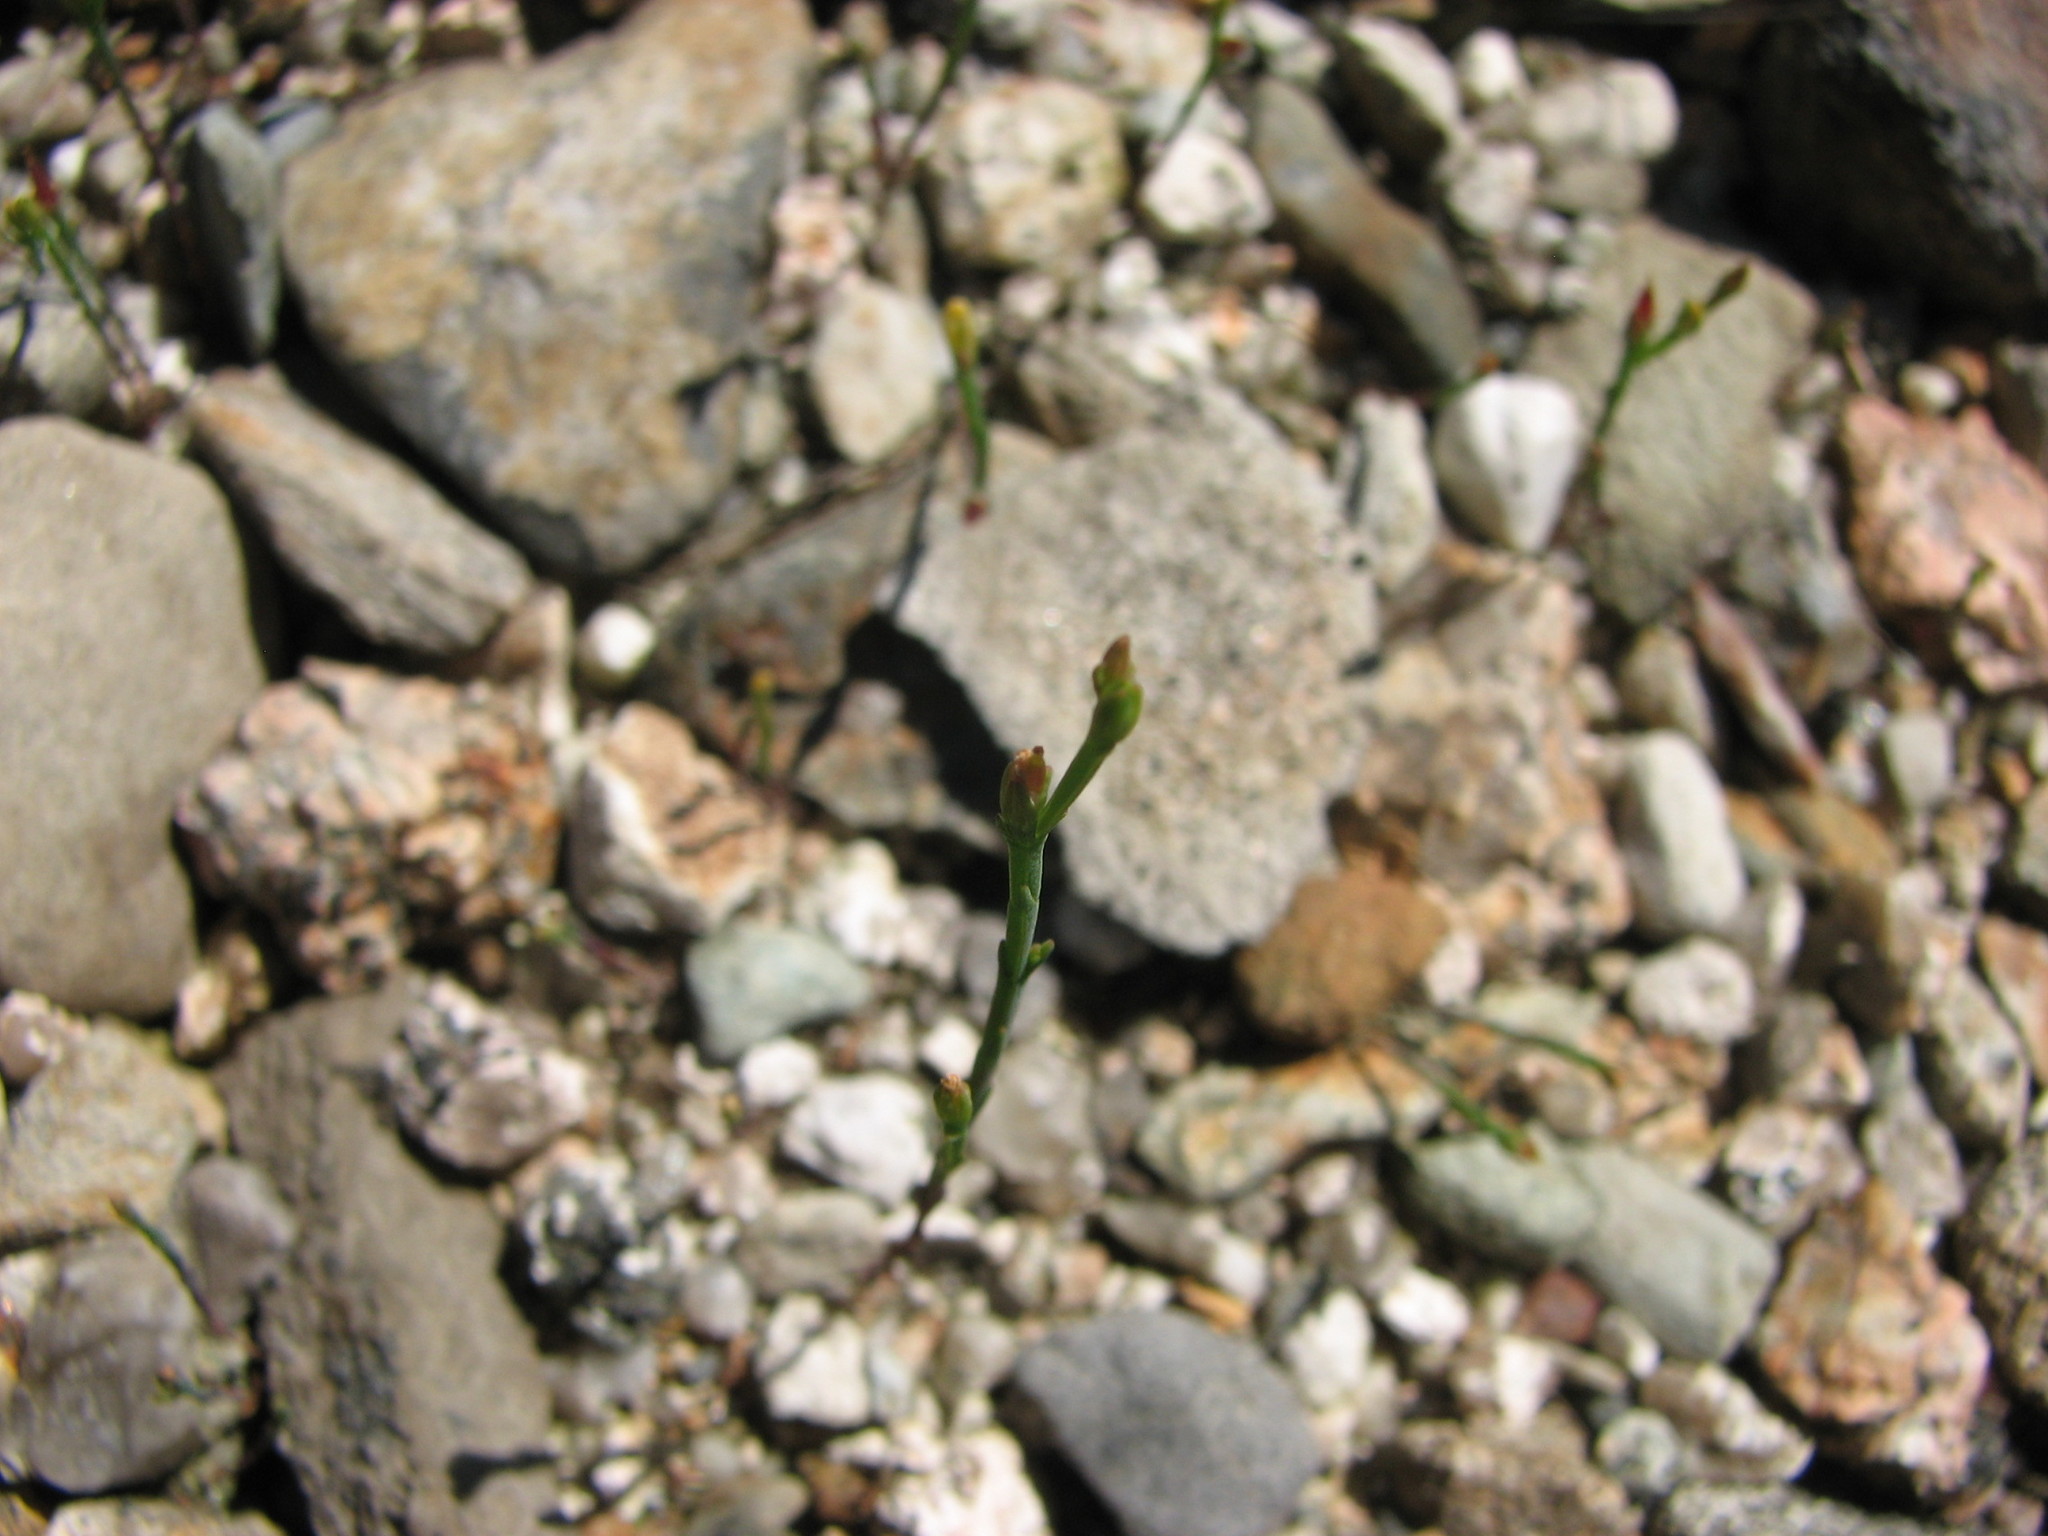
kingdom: Plantae
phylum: Tracheophyta
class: Magnoliopsida
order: Malpighiales
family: Hypericaceae
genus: Hypericum
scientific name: Hypericum gentianoides
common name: Gentian-leaved st. john's-wort
